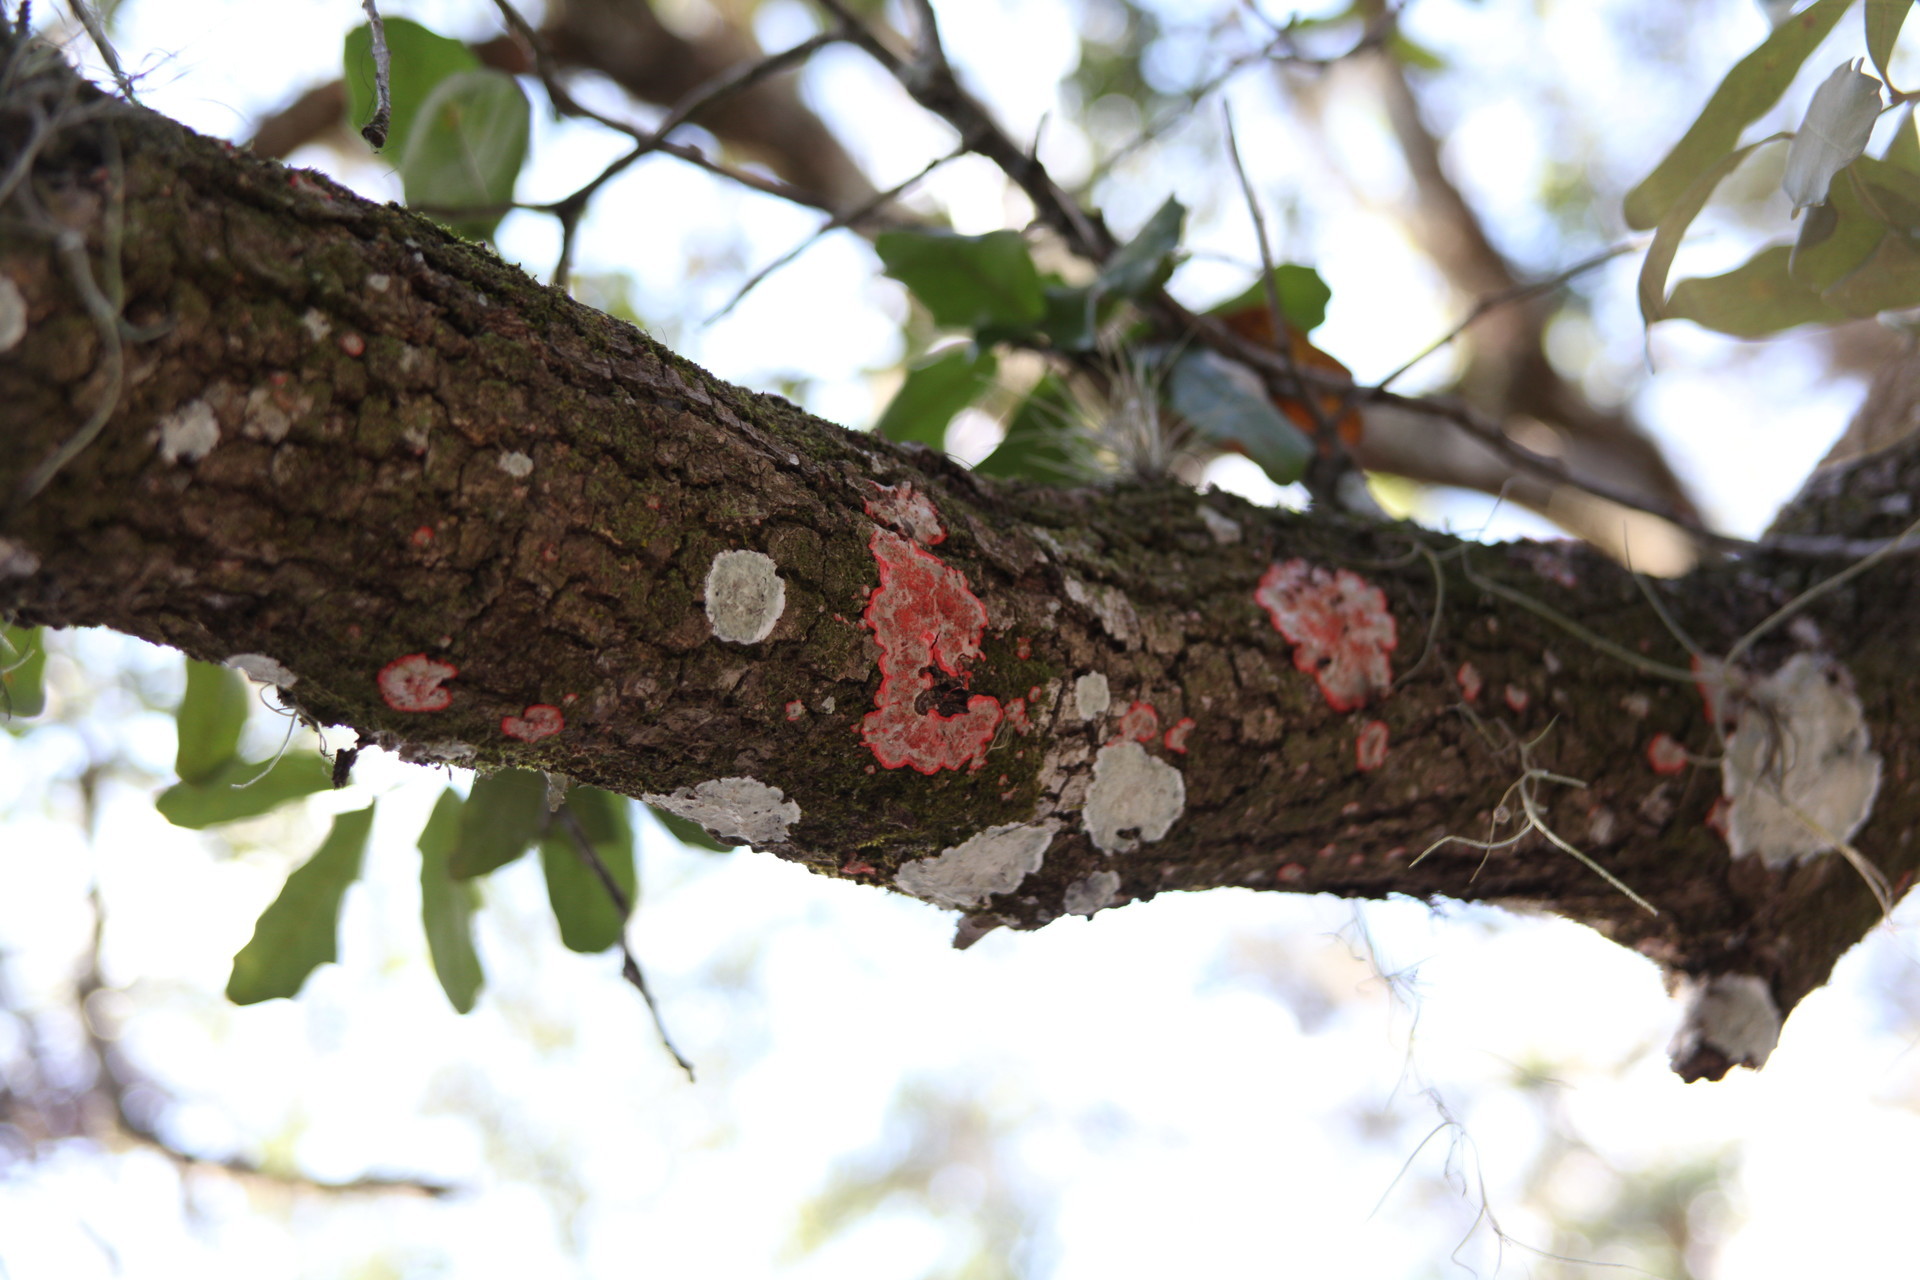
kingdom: Fungi
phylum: Ascomycota
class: Arthoniomycetes
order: Arthoniales
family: Arthoniaceae
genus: Herpothallon
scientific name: Herpothallon rubrocinctum
